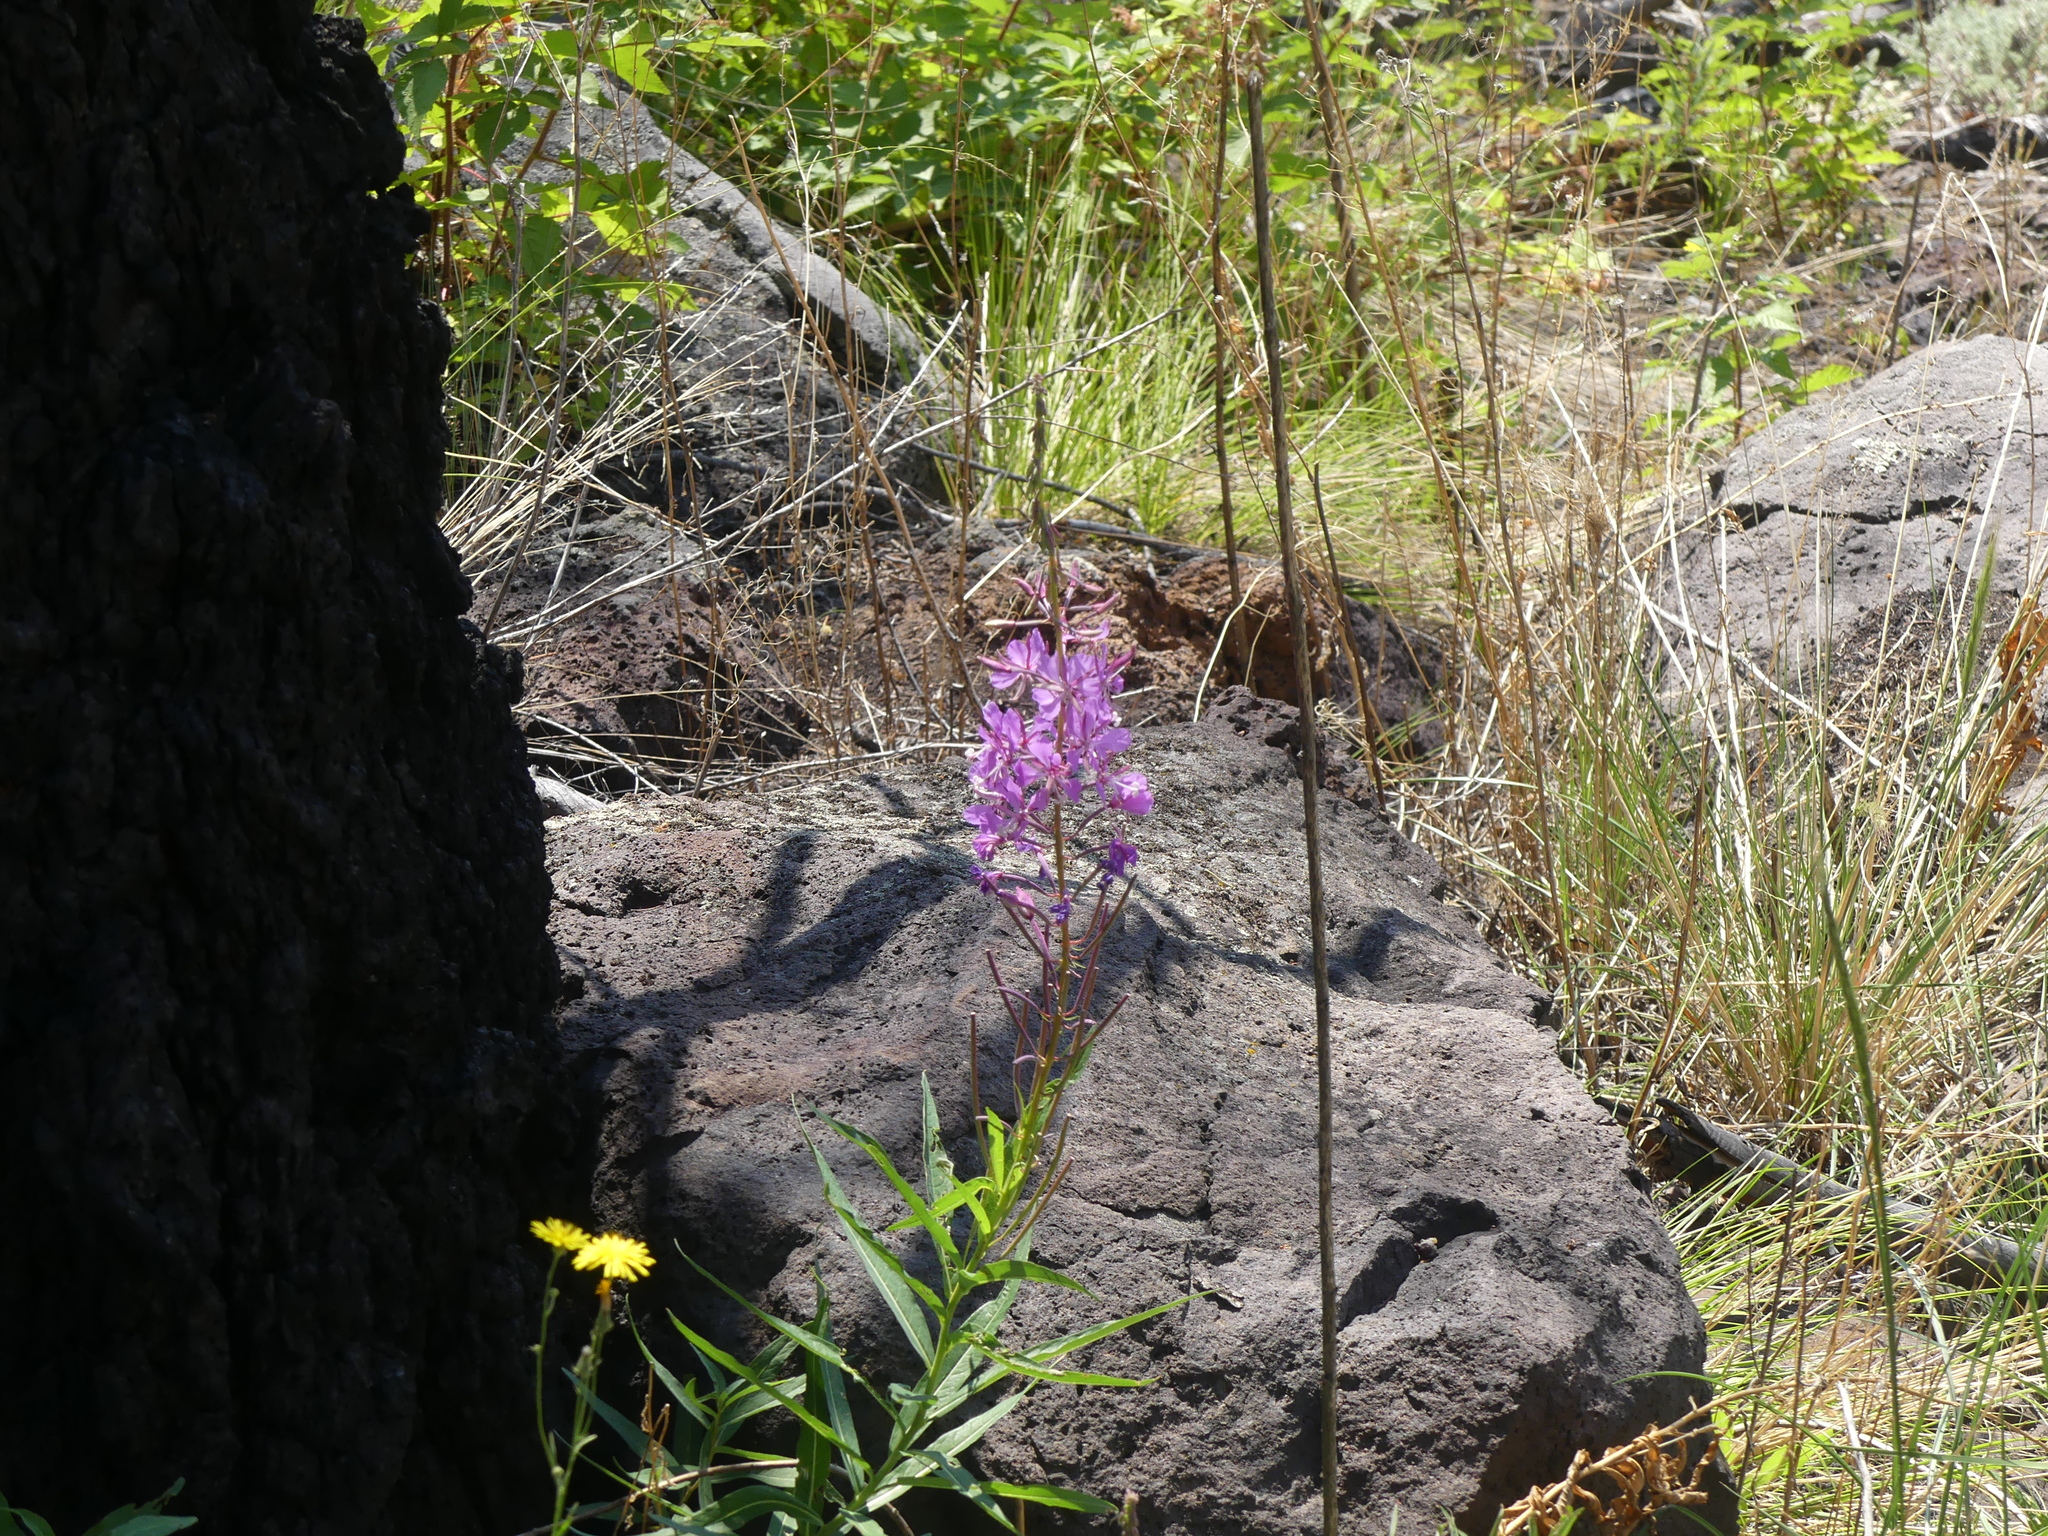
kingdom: Plantae
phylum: Tracheophyta
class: Magnoliopsida
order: Myrtales
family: Onagraceae
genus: Chamaenerion
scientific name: Chamaenerion angustifolium
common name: Fireweed
